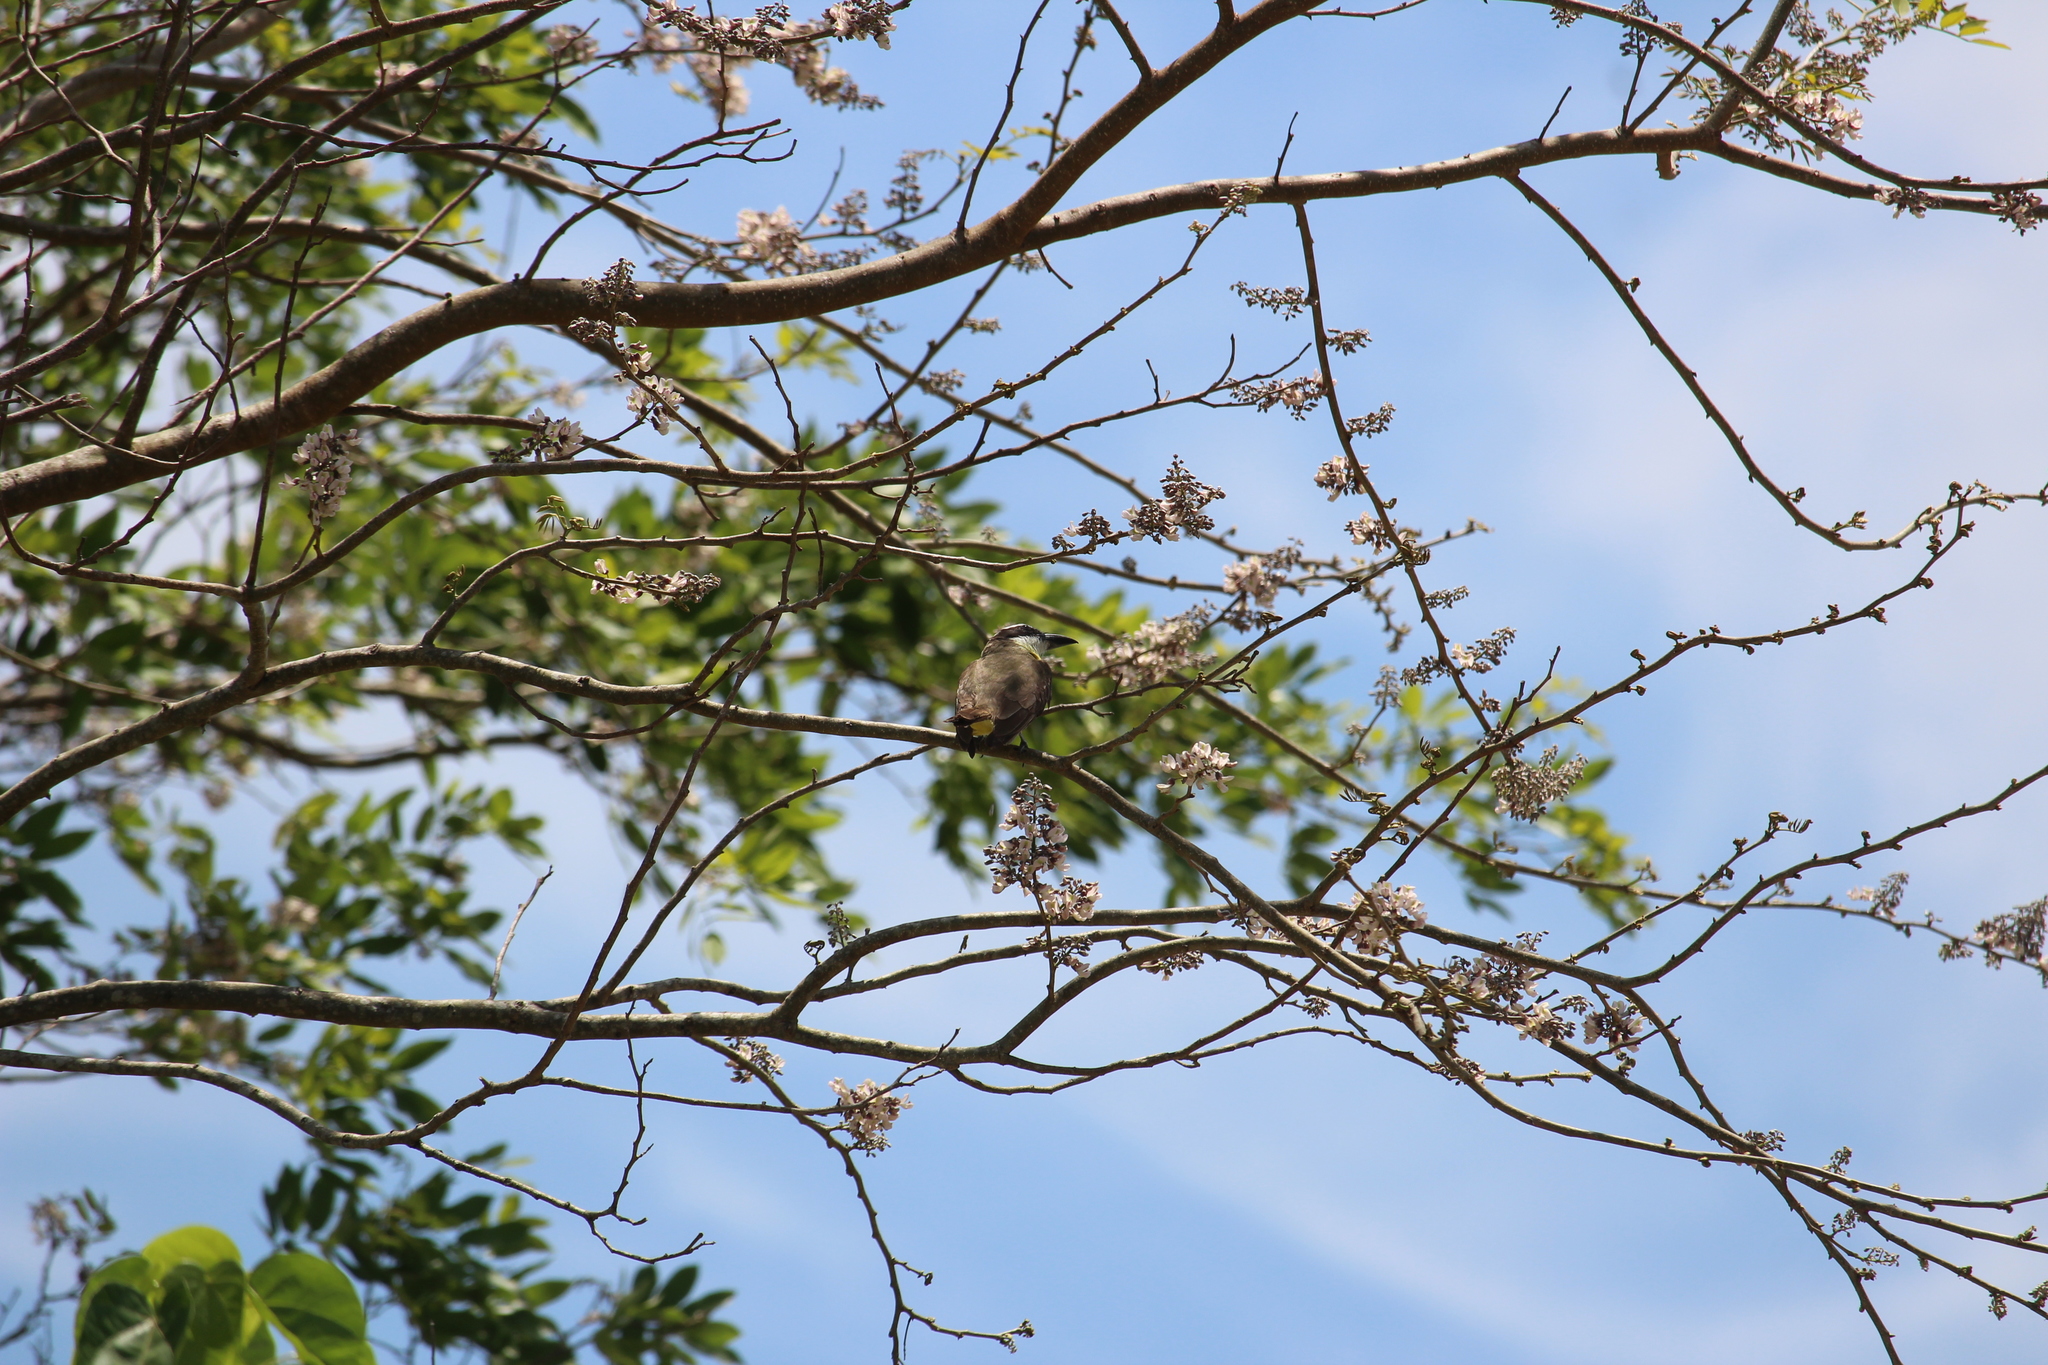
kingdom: Animalia
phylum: Chordata
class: Aves
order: Passeriformes
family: Tyrannidae
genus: Megarynchus
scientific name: Megarynchus pitangua
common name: Boat-billed flycatcher
